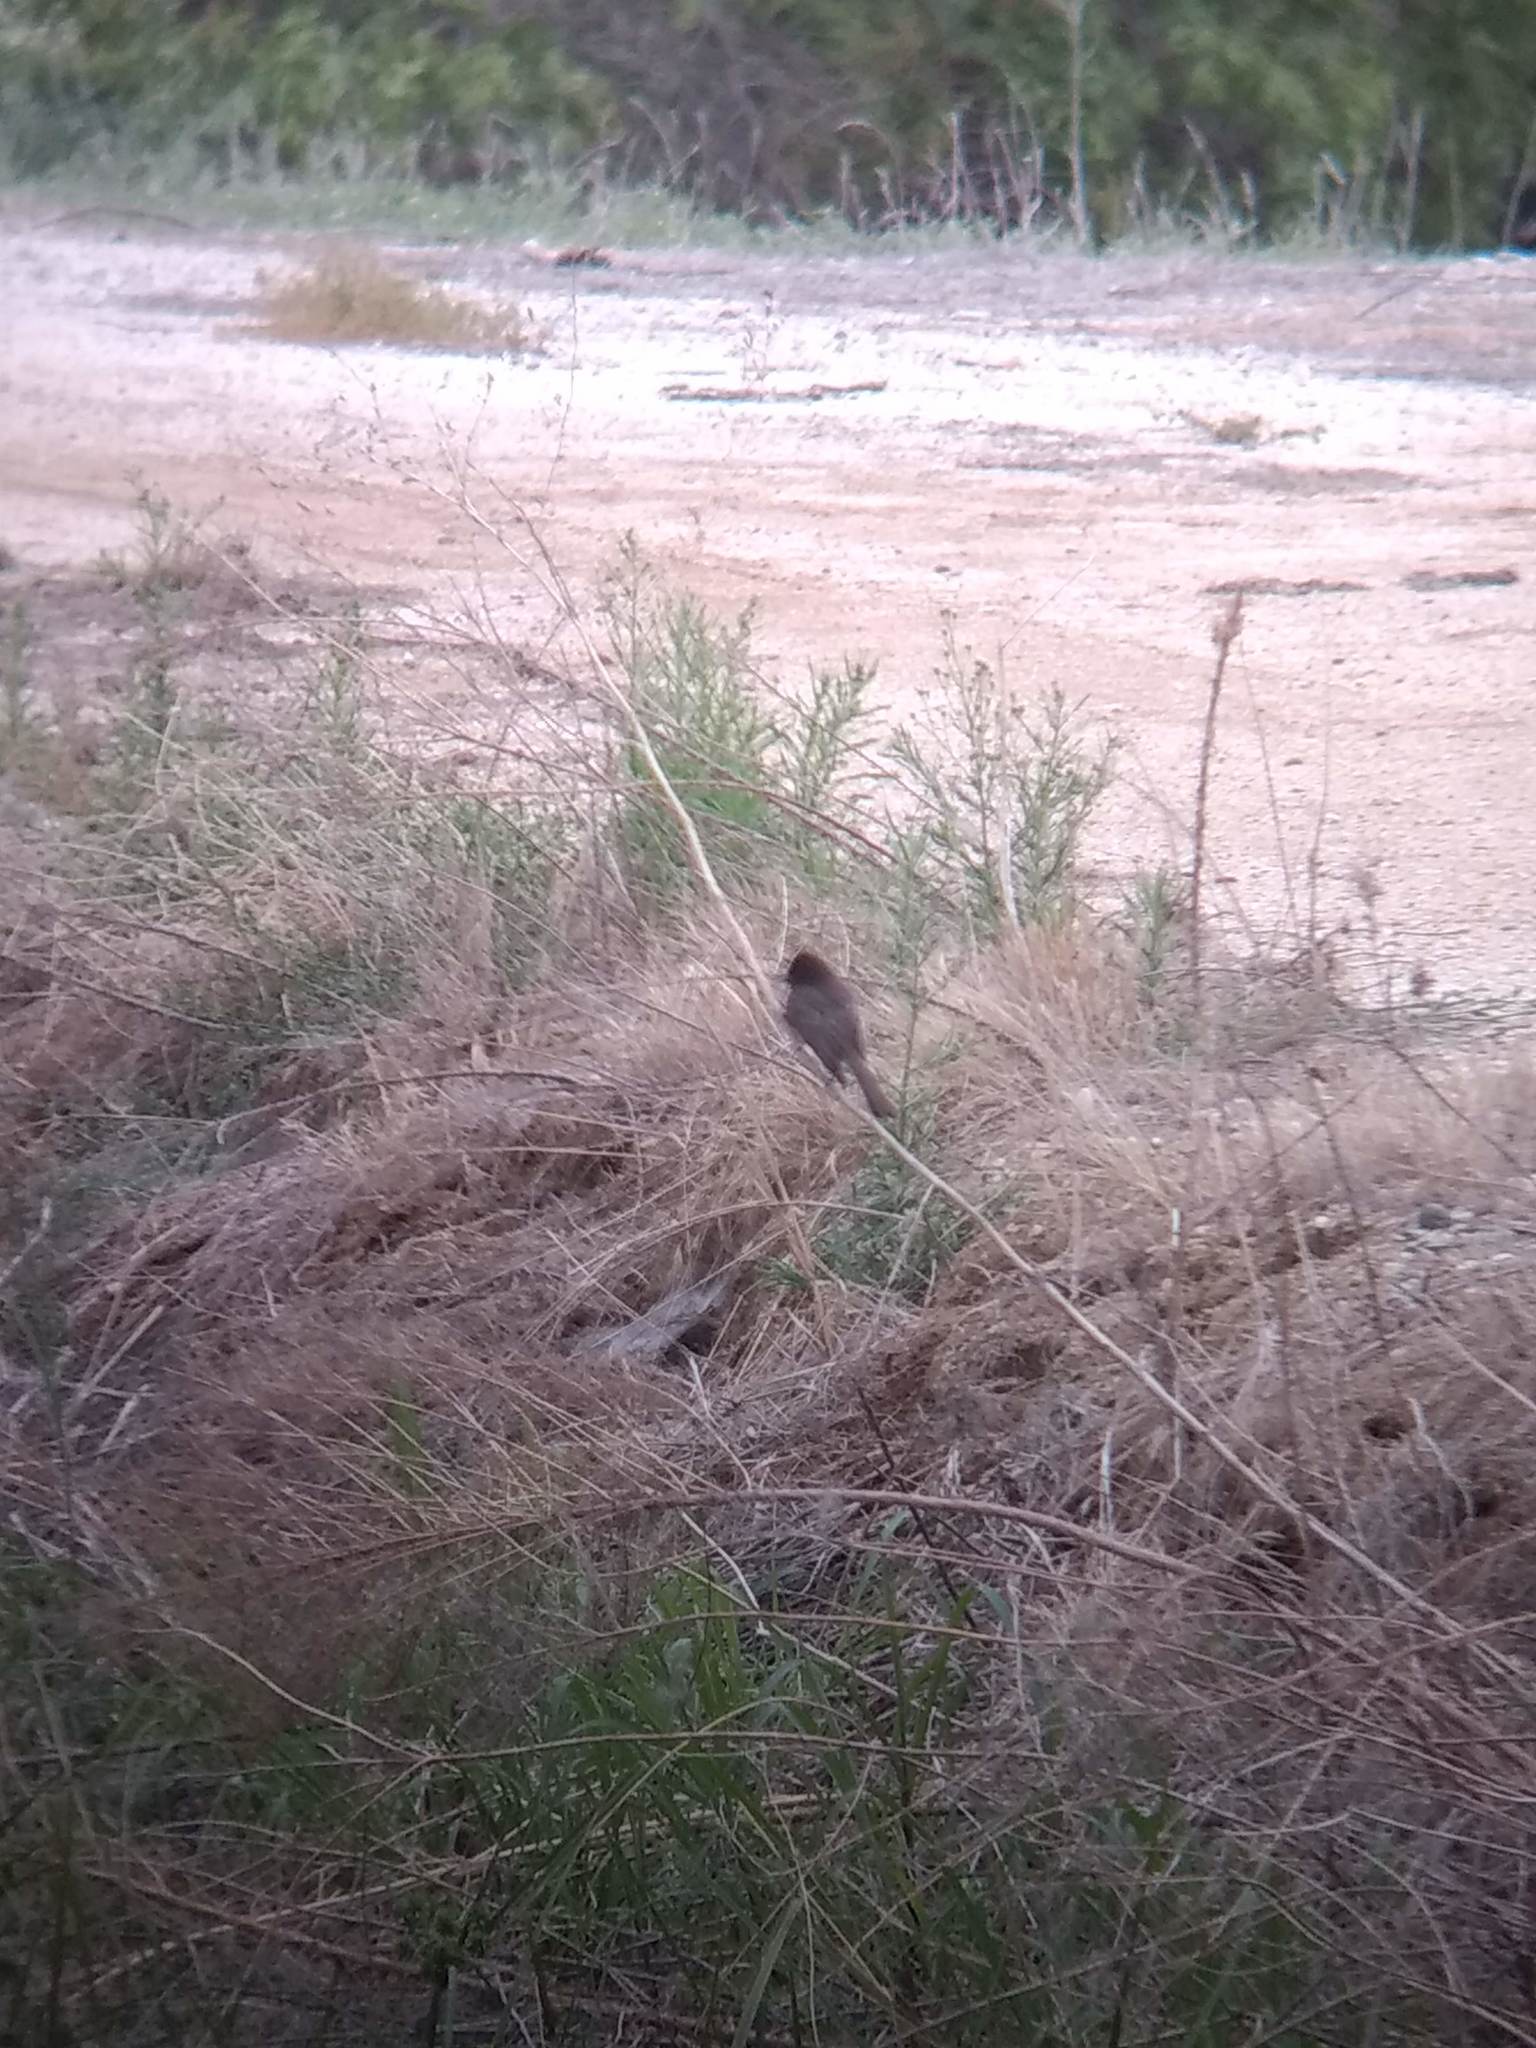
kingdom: Animalia
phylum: Chordata
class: Aves
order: Passeriformes
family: Tyrannidae
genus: Sayornis
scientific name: Sayornis nigricans
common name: Black phoebe
